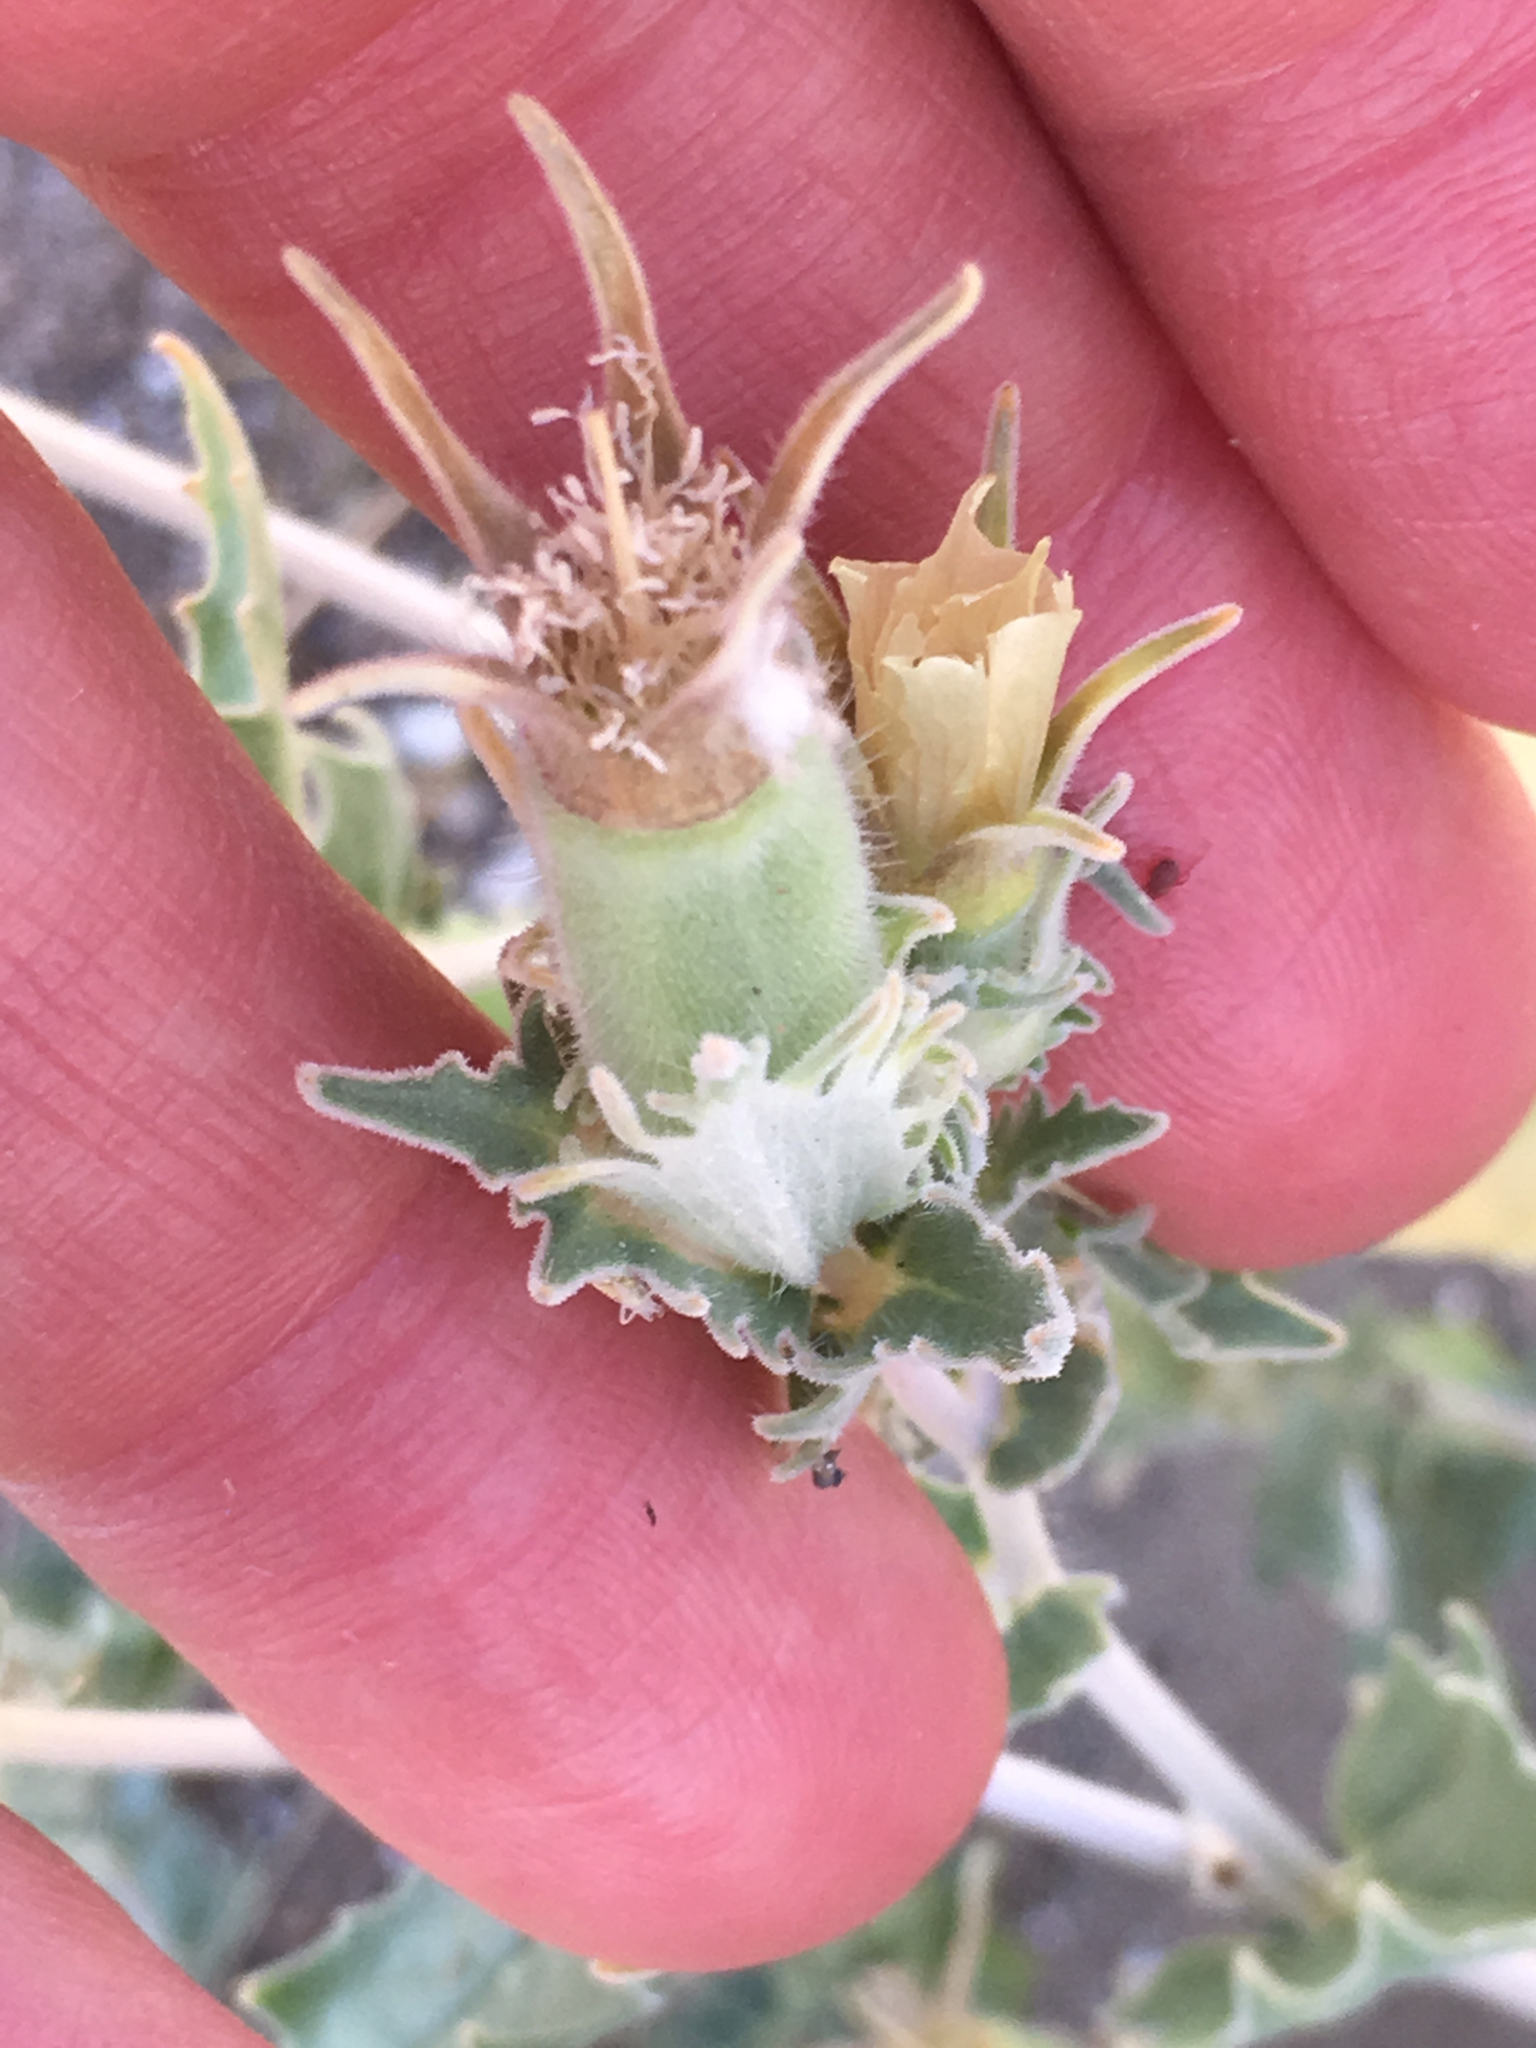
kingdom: Plantae
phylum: Tracheophyta
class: Magnoliopsida
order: Cornales
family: Loasaceae
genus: Mentzelia
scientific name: Mentzelia involucrata
